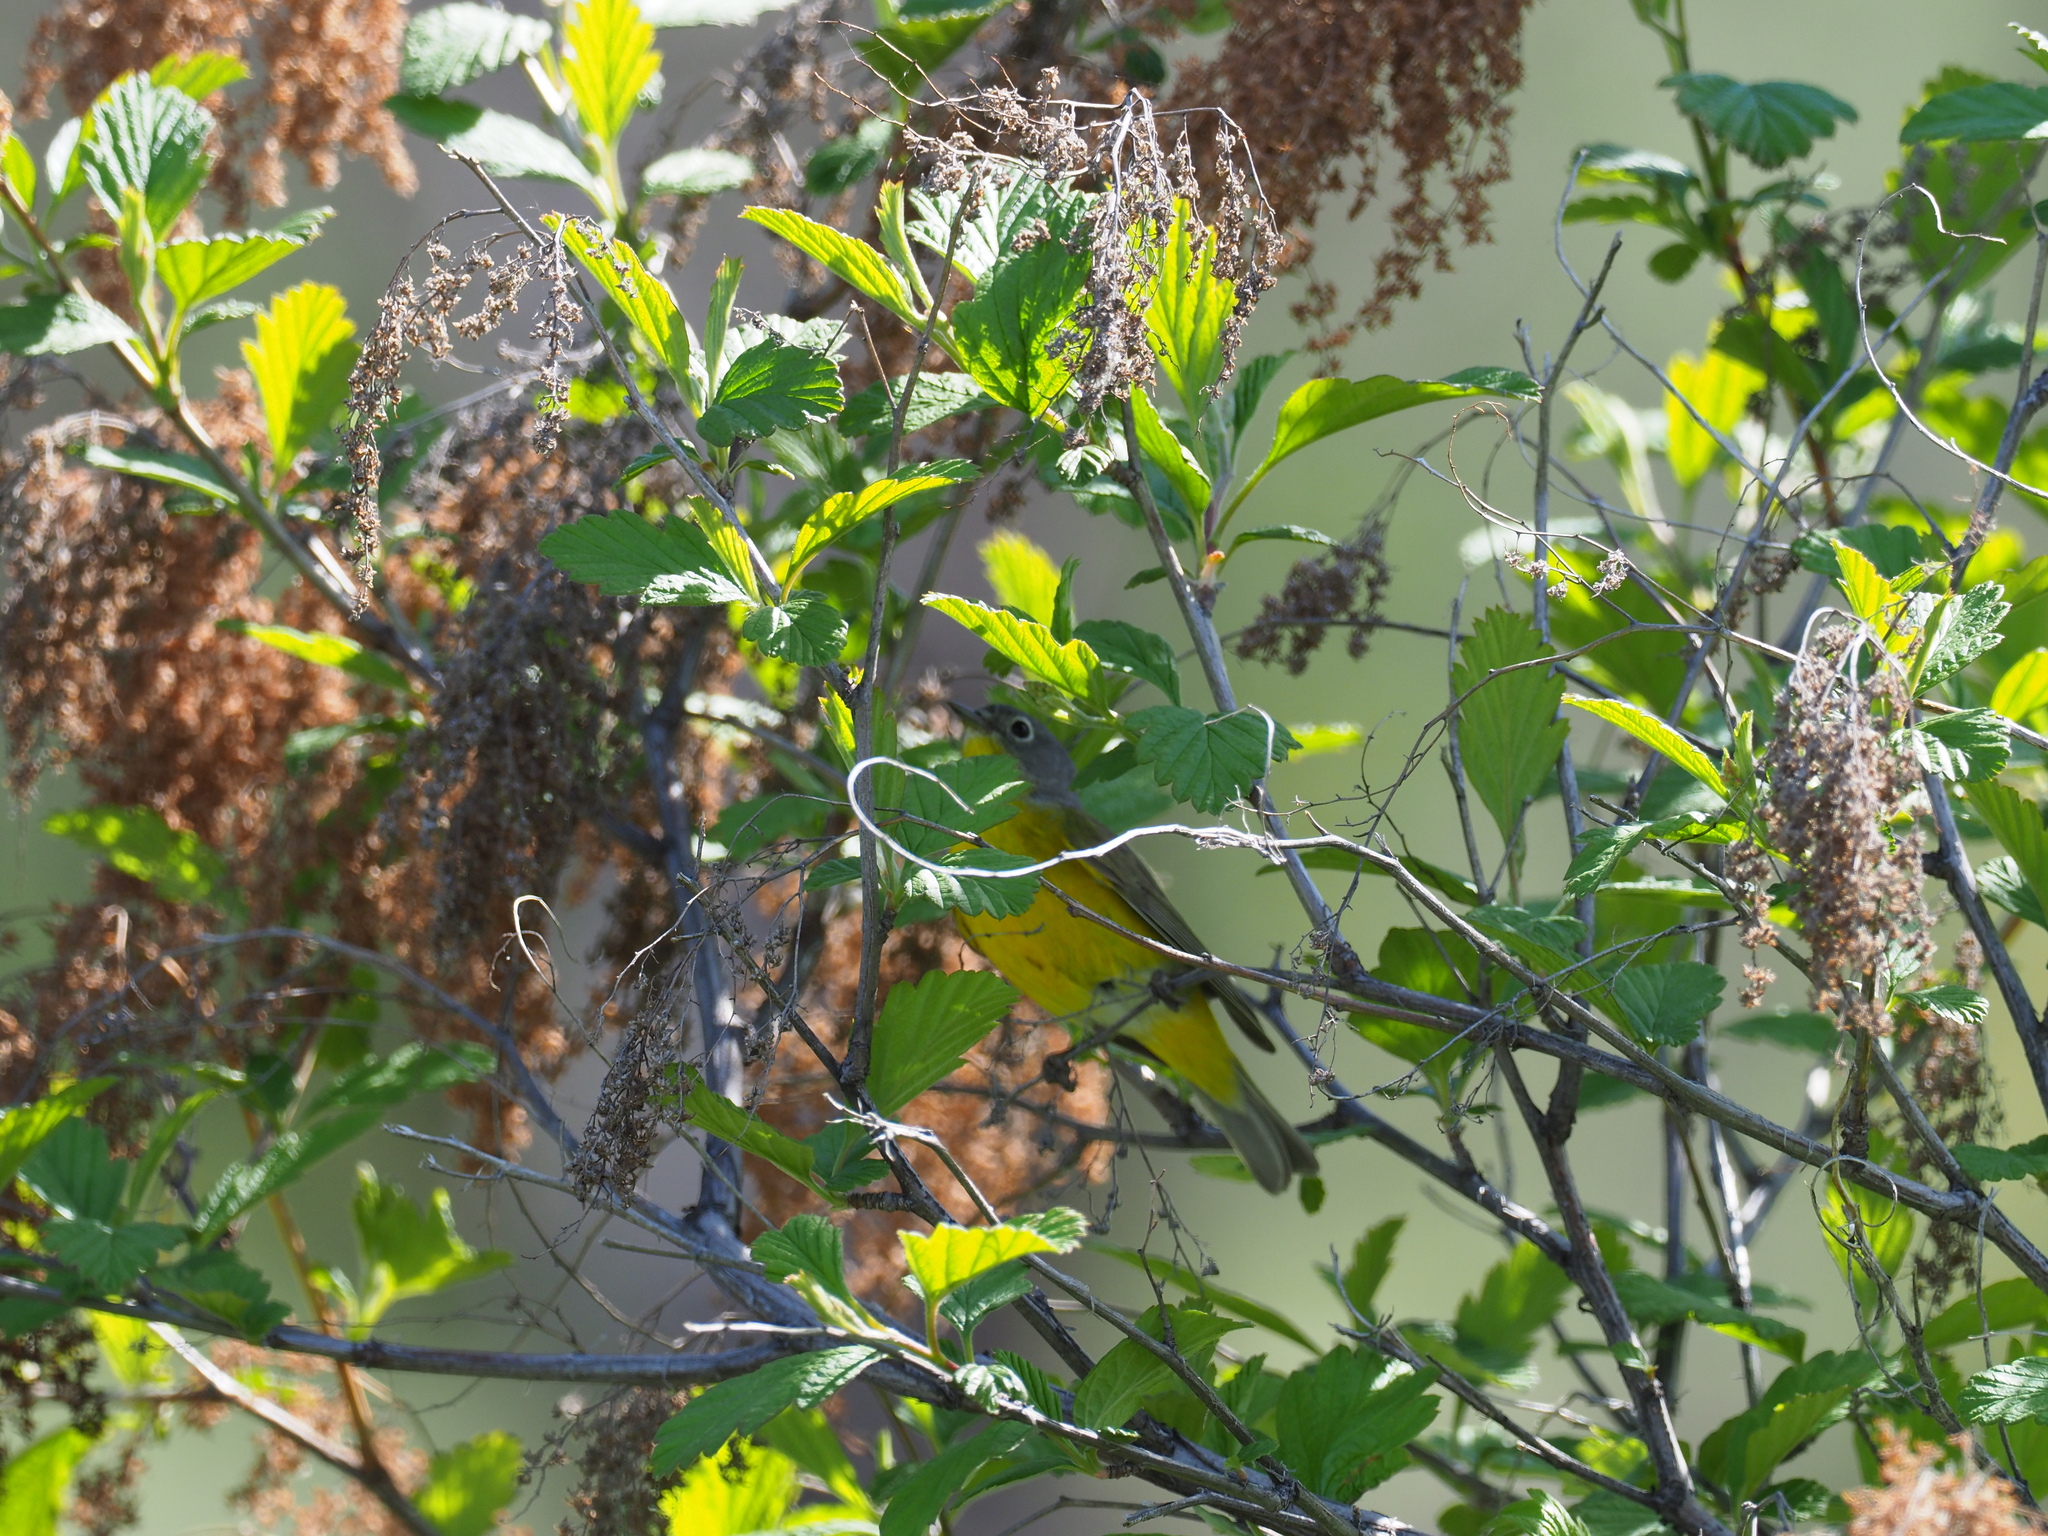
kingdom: Animalia
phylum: Chordata
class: Aves
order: Passeriformes
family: Parulidae
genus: Leiothlypis
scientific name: Leiothlypis ruficapilla
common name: Nashville warbler
